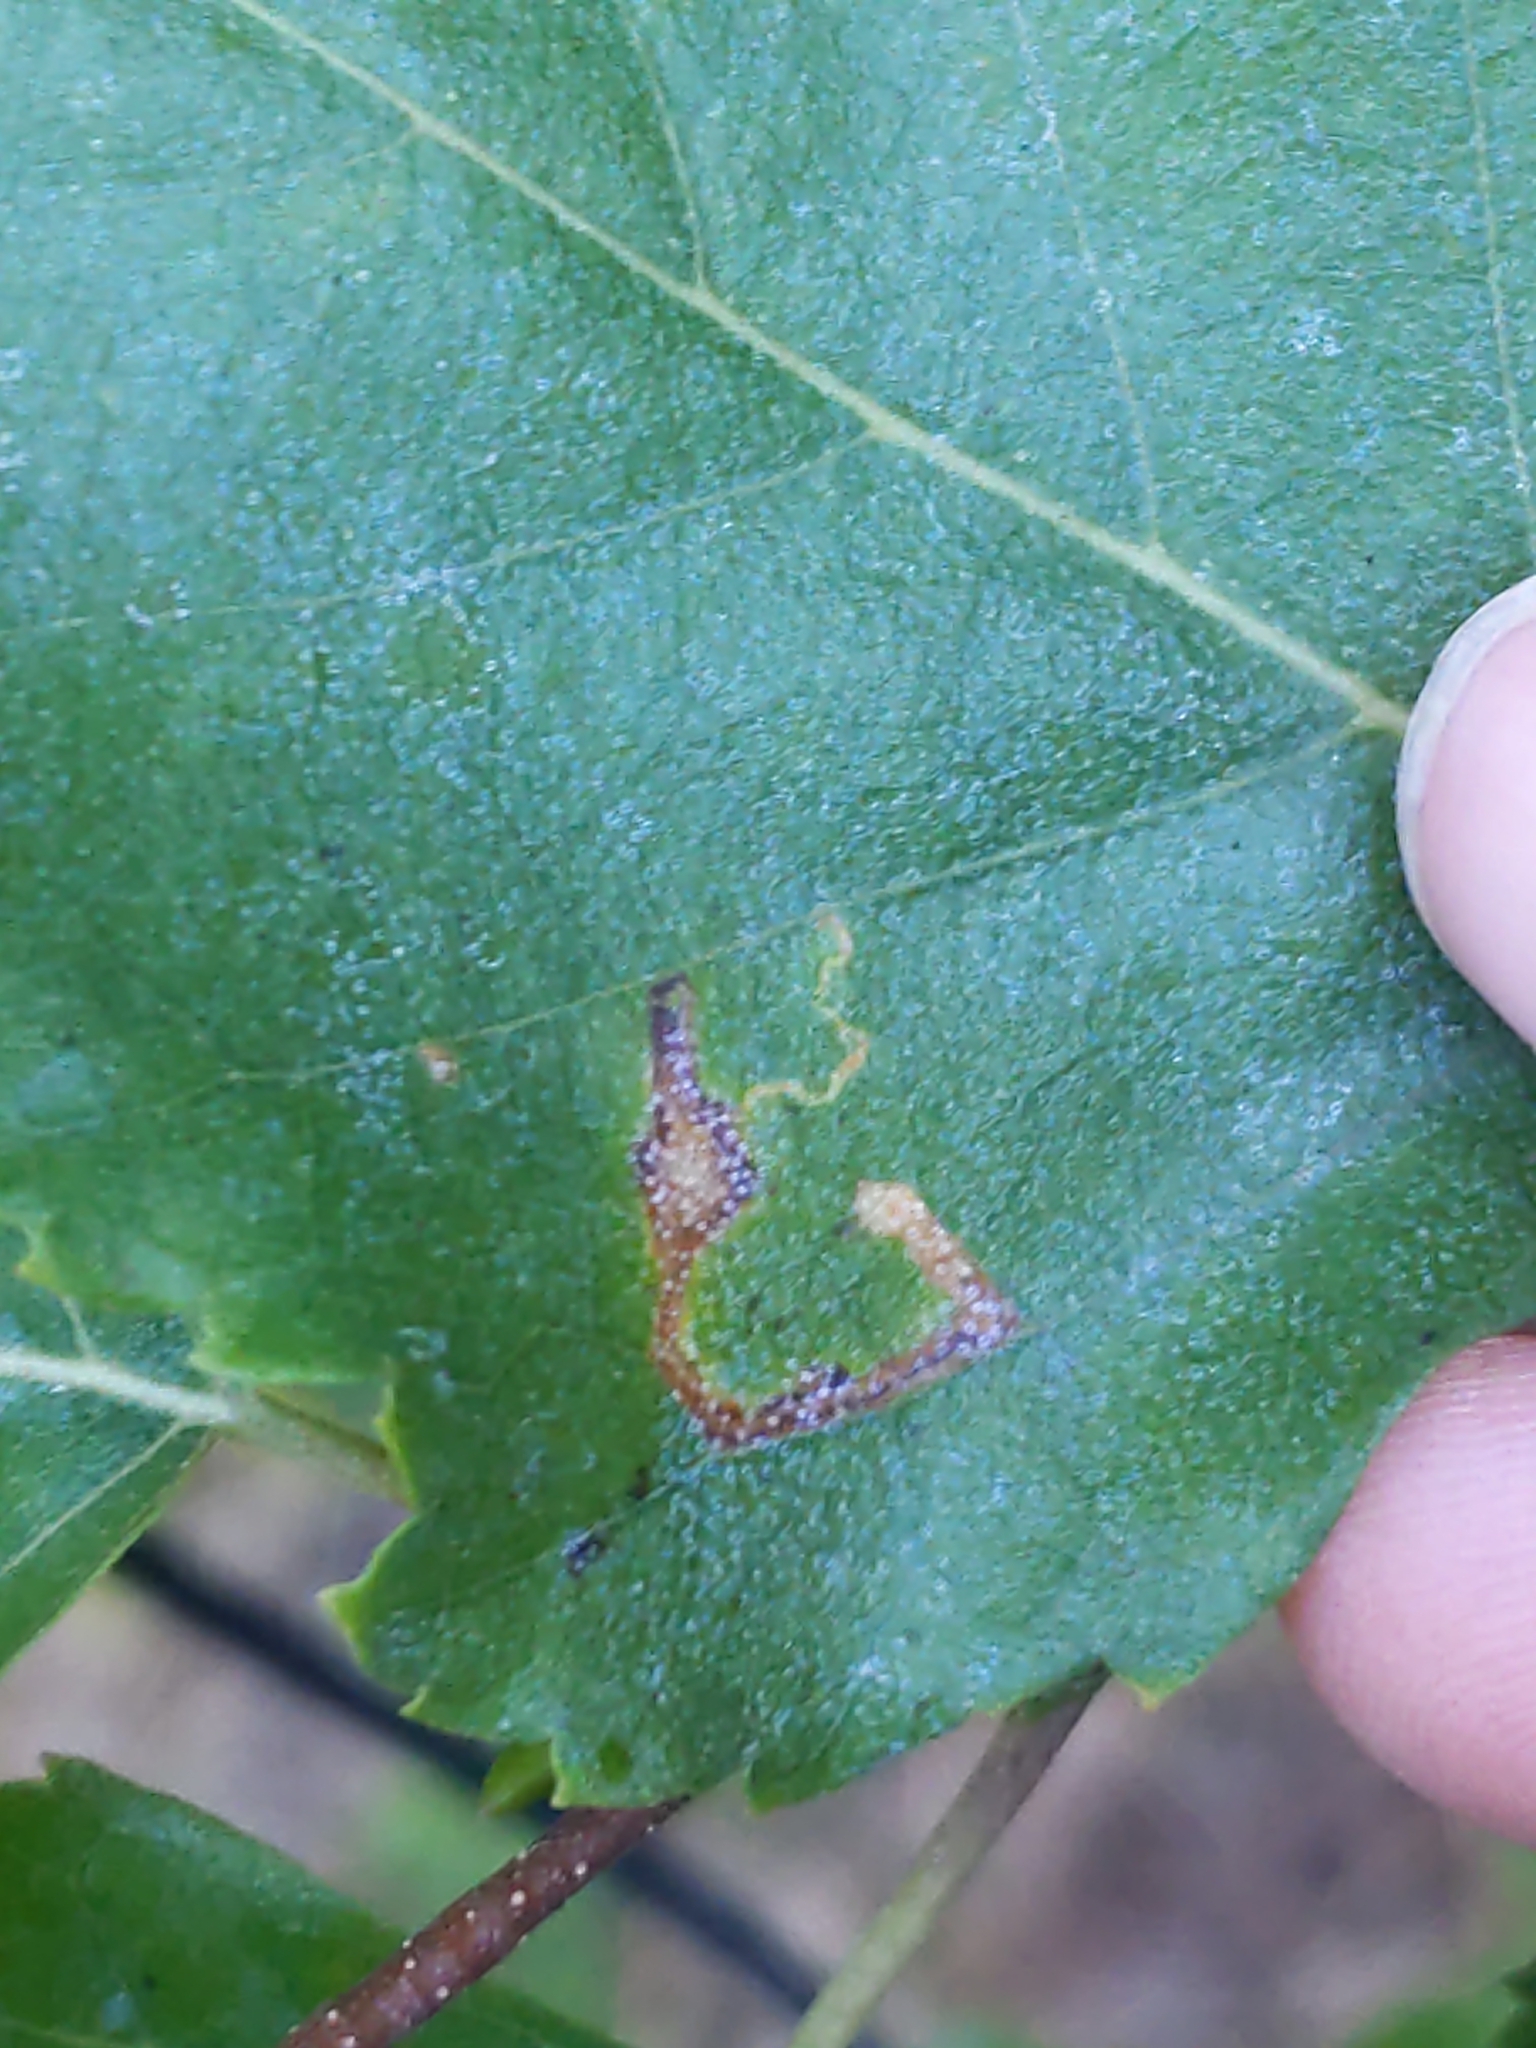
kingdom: Animalia
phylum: Arthropoda
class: Insecta
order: Lepidoptera
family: Nepticulidae
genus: Stigmella
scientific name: Stigmella
